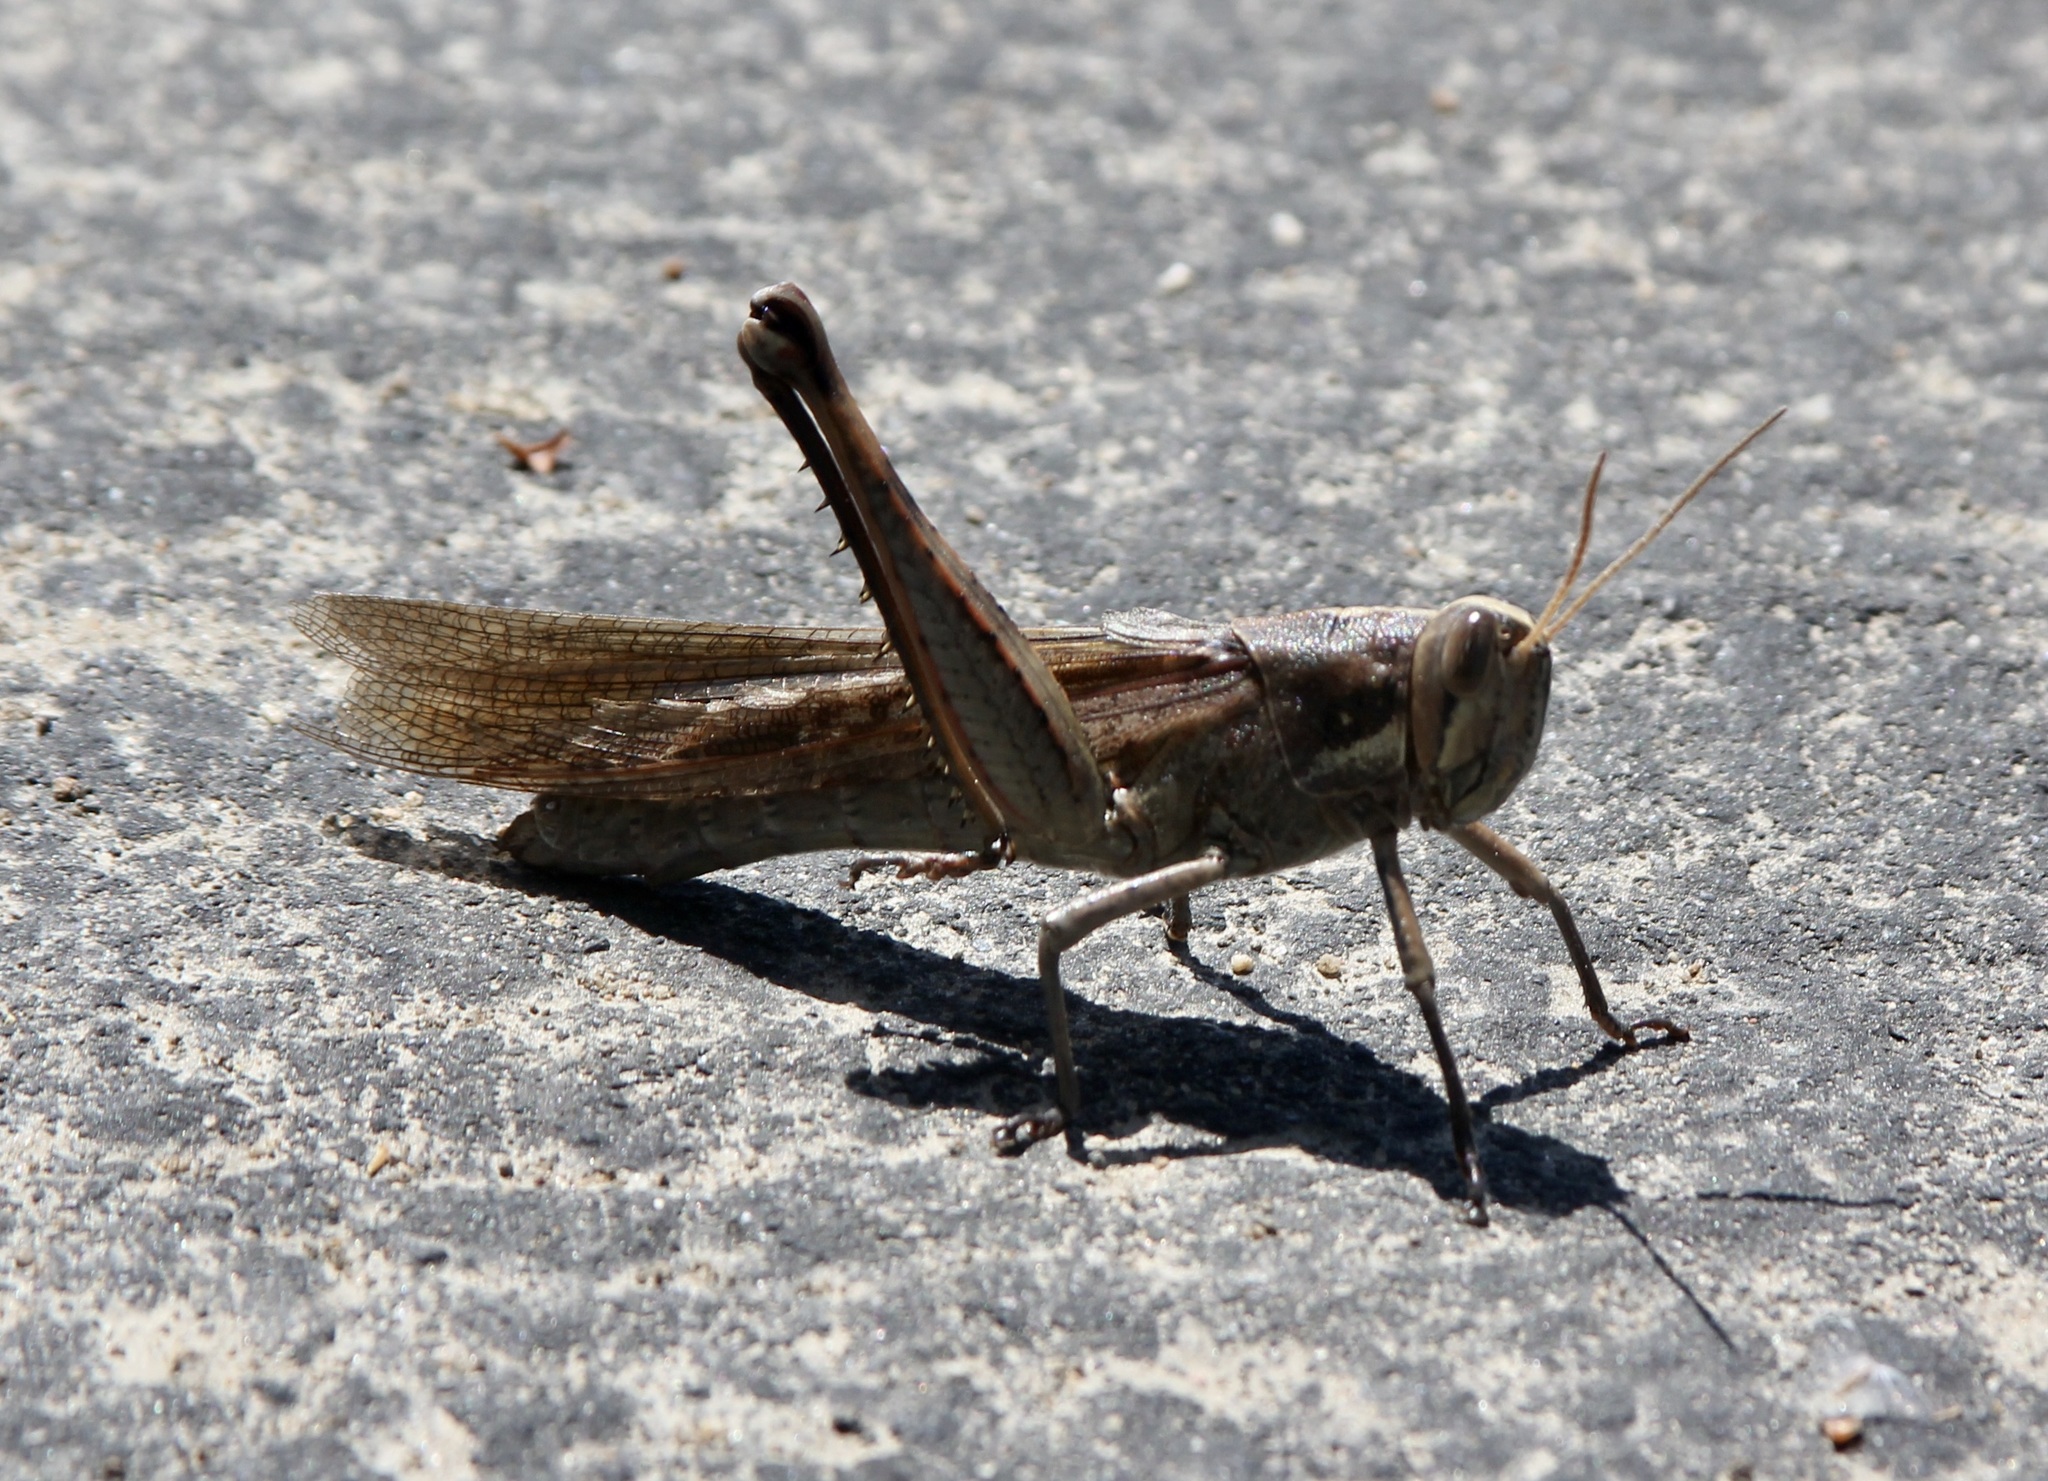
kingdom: Animalia
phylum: Arthropoda
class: Insecta
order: Orthoptera
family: Acrididae
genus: Schistocerca
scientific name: Schistocerca nitens
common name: Vagrant grasshopper
